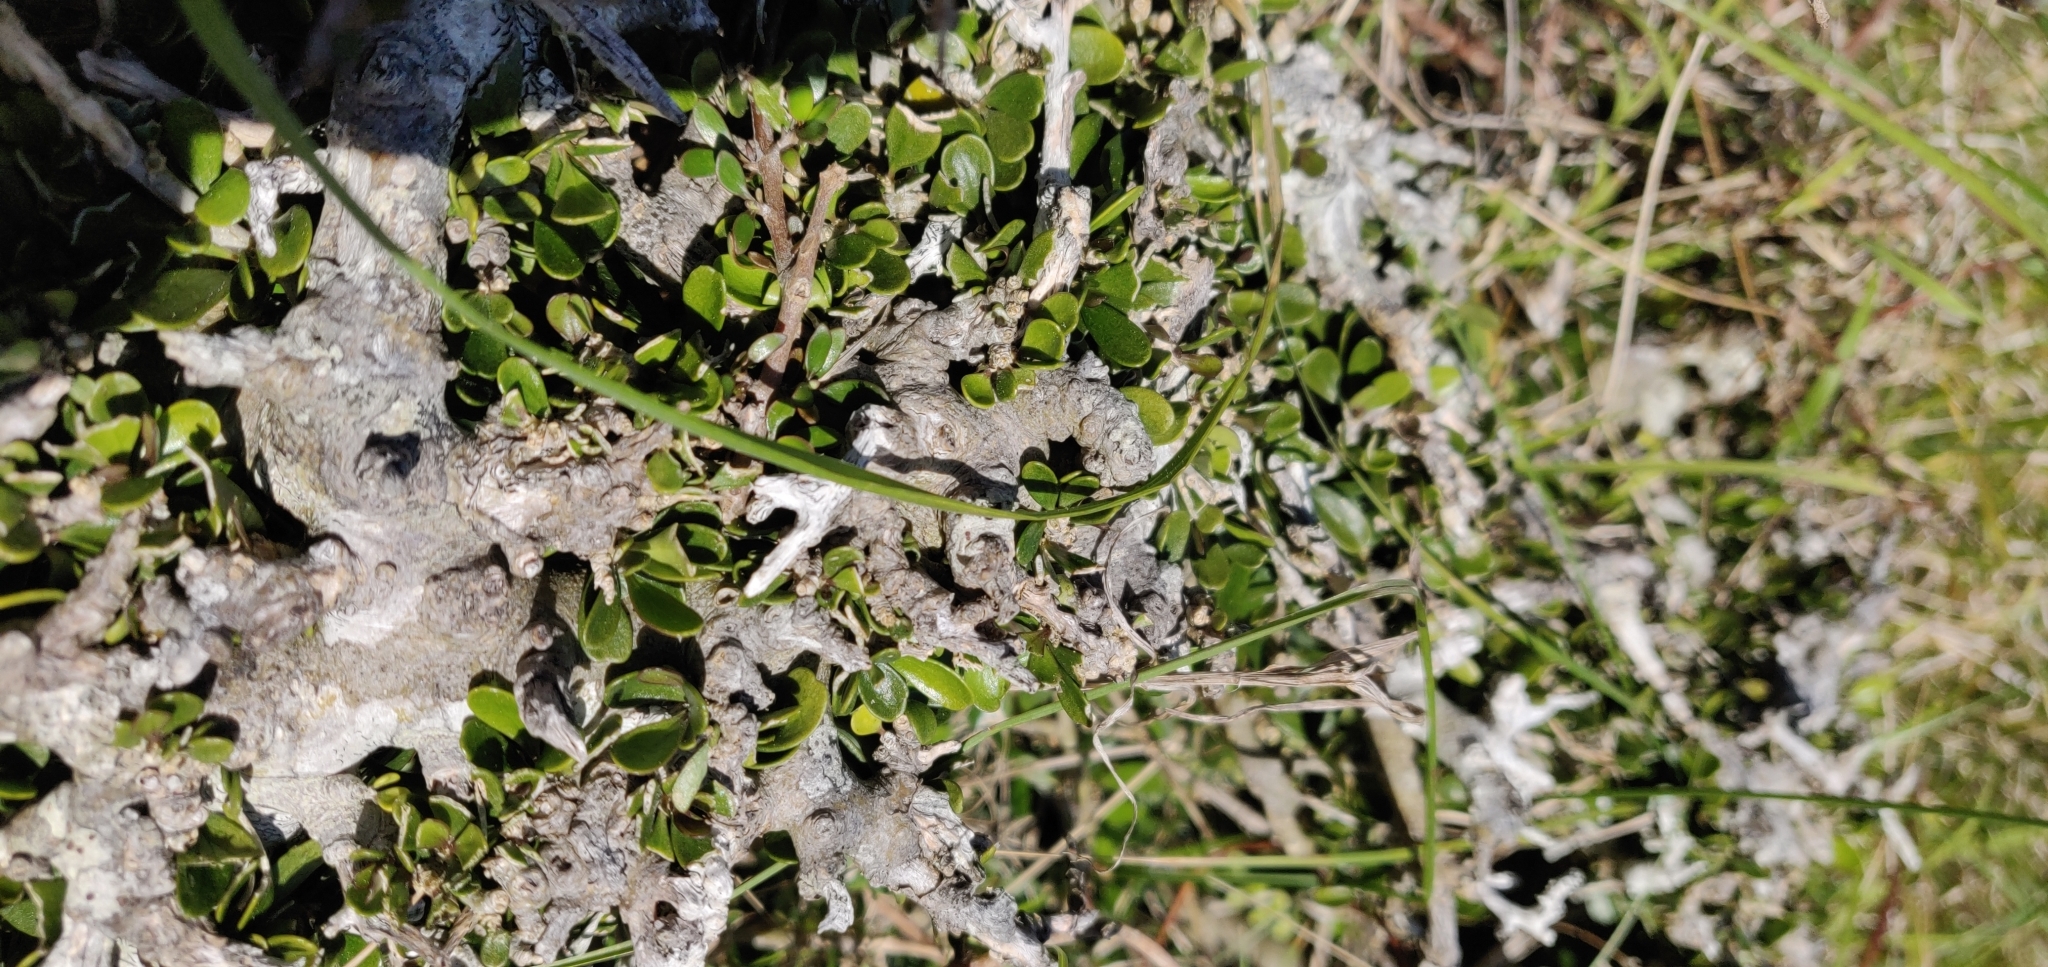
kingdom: Plantae
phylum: Tracheophyta
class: Magnoliopsida
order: Malpighiales
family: Violaceae
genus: Melicytus
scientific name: Melicytus crassifolius
